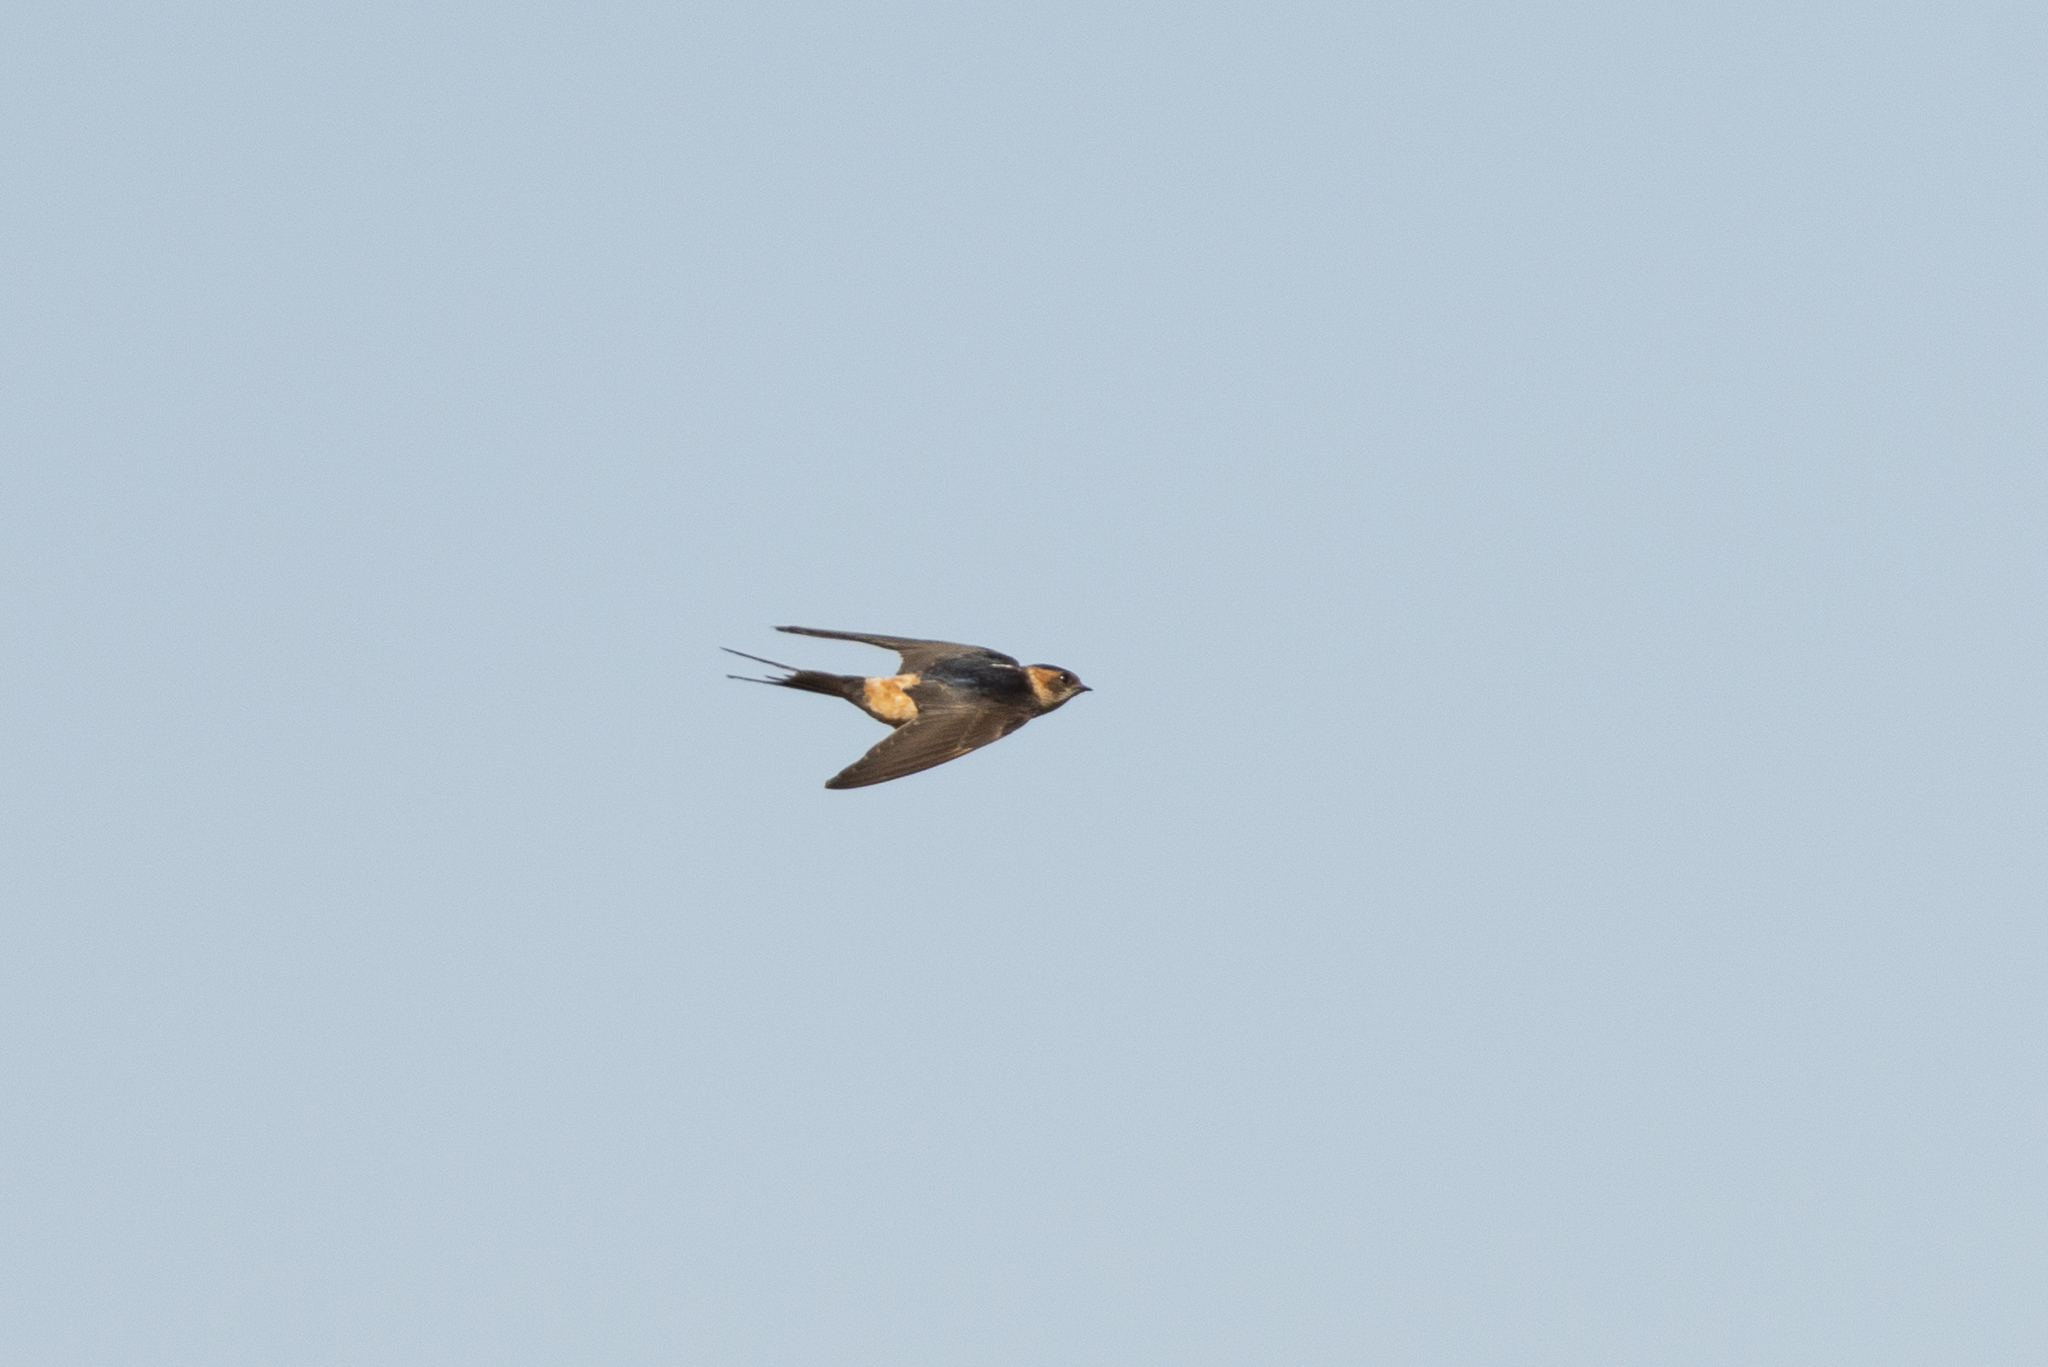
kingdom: Animalia
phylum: Chordata
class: Aves
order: Passeriformes
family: Hirundinidae
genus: Cecropis
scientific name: Cecropis daurica
